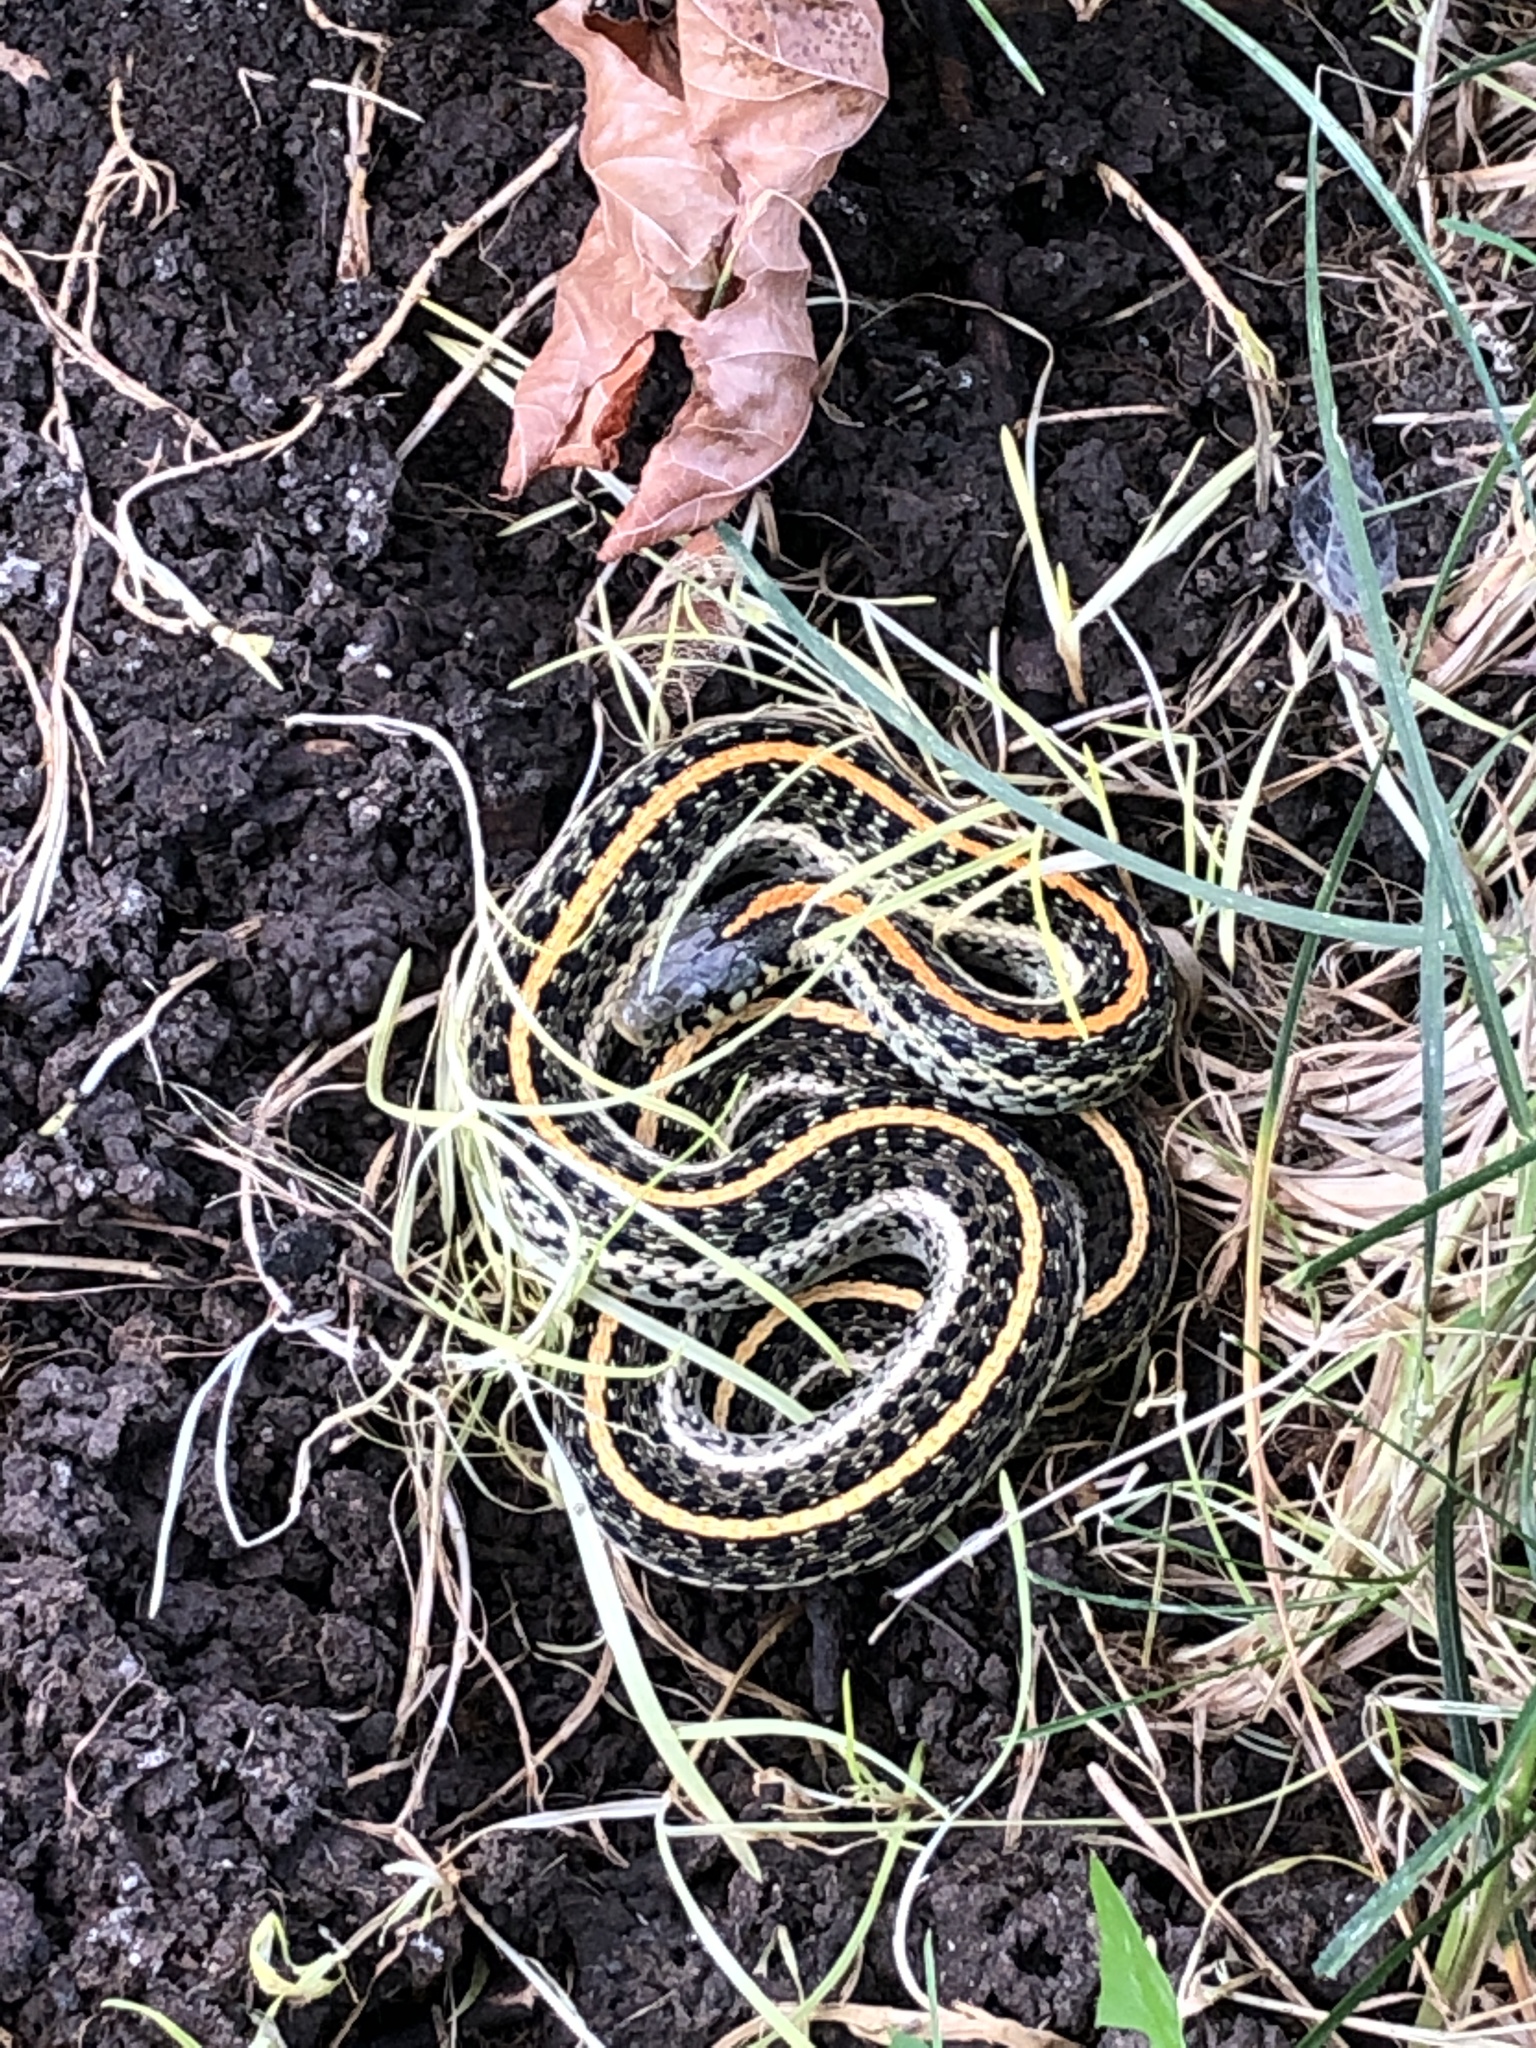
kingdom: Animalia
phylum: Chordata
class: Squamata
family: Colubridae
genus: Thamnophis
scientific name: Thamnophis radix
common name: Plains garter snake
